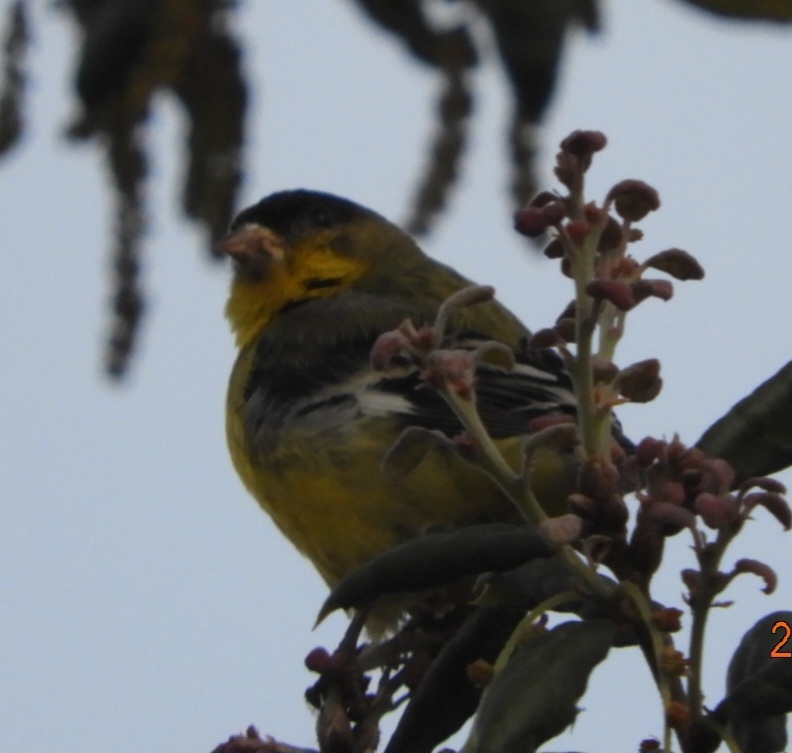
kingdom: Animalia
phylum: Chordata
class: Aves
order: Passeriformes
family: Fringillidae
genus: Spinus
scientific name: Spinus psaltria
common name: Lesser goldfinch
